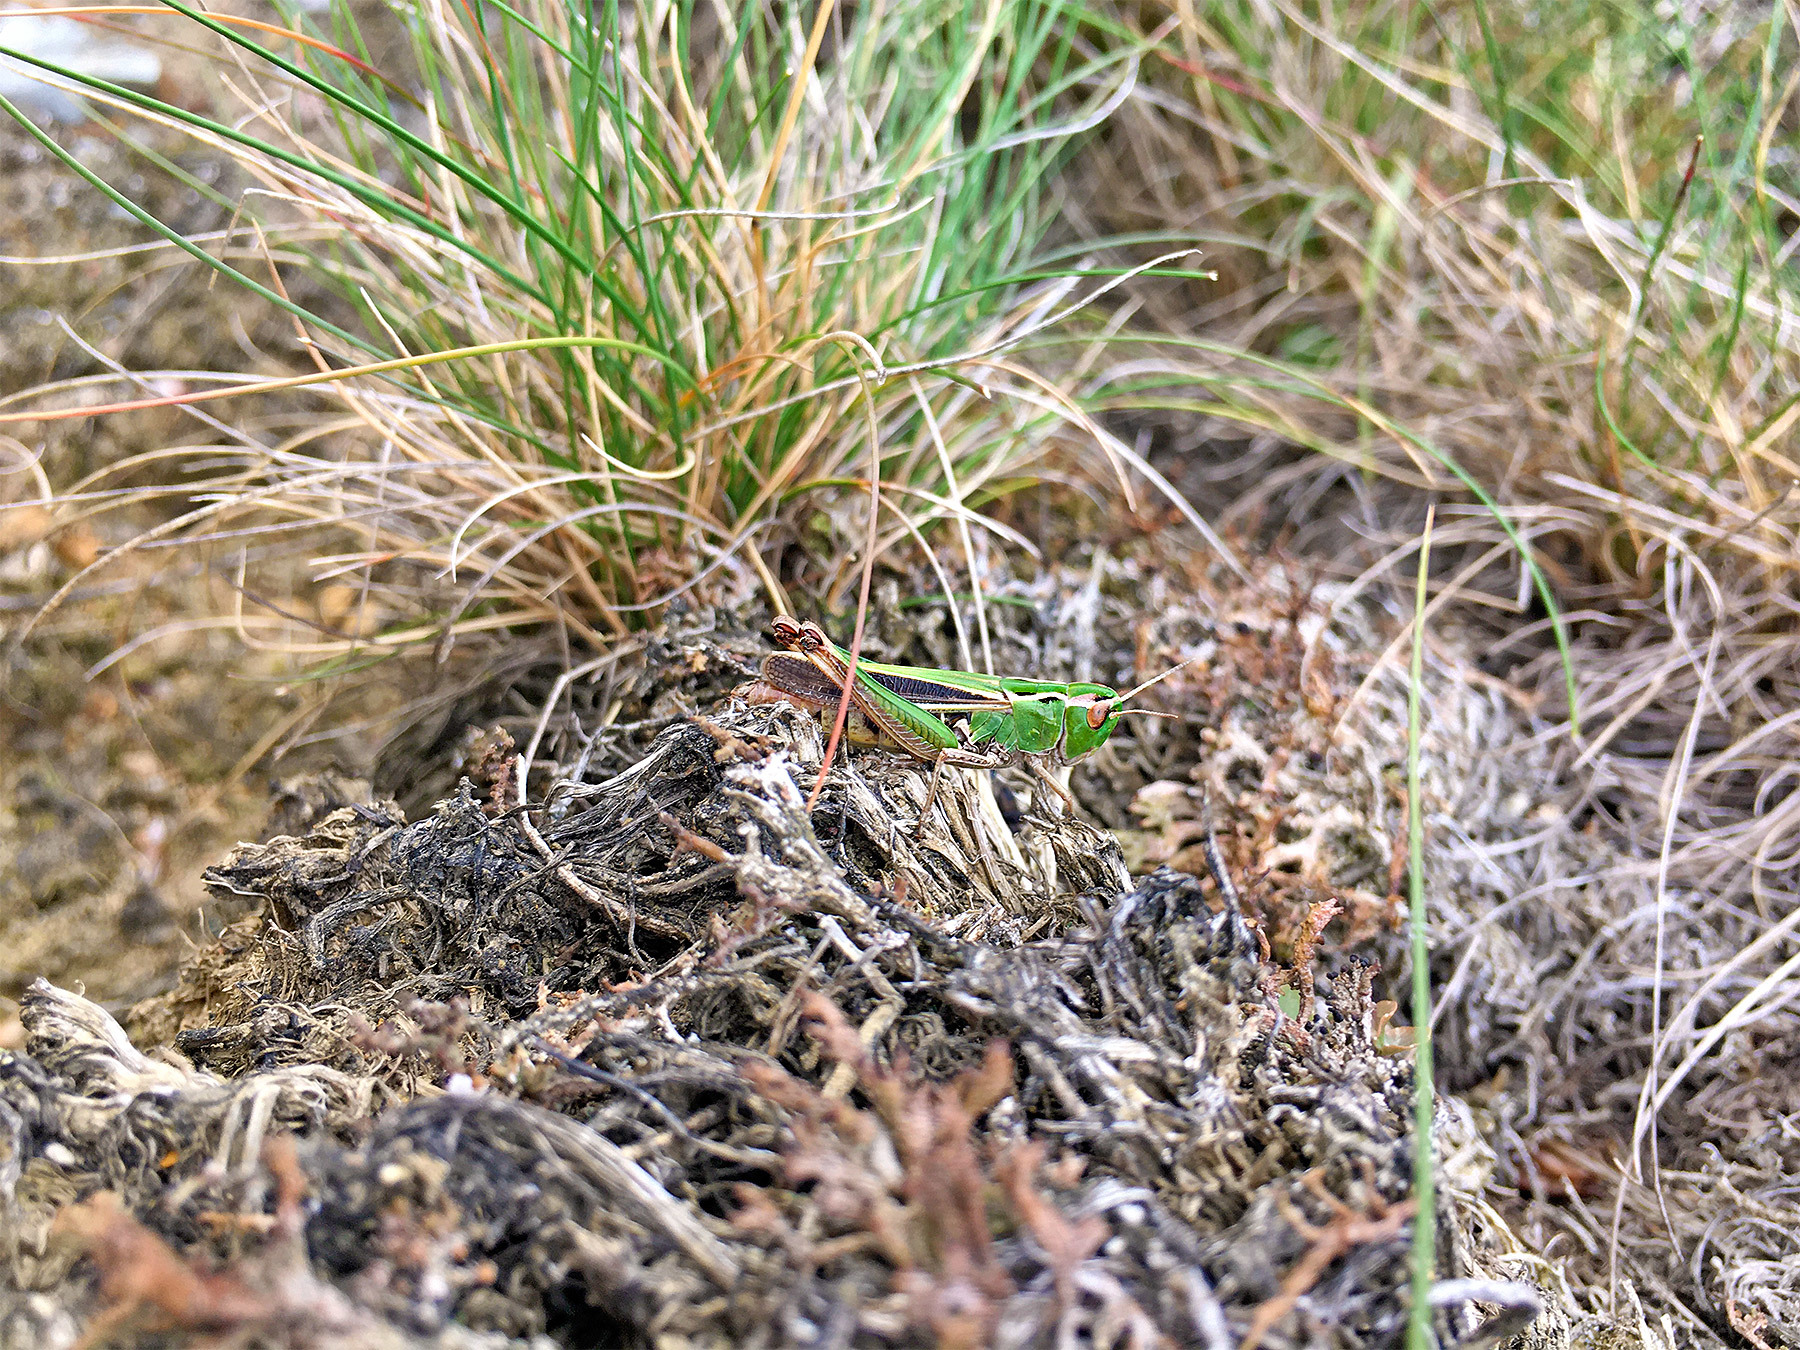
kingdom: Animalia
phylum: Arthropoda
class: Insecta
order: Orthoptera
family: Acrididae
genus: Stenobothrus
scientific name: Stenobothrus lineatus
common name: Stripe-winged grasshopper
